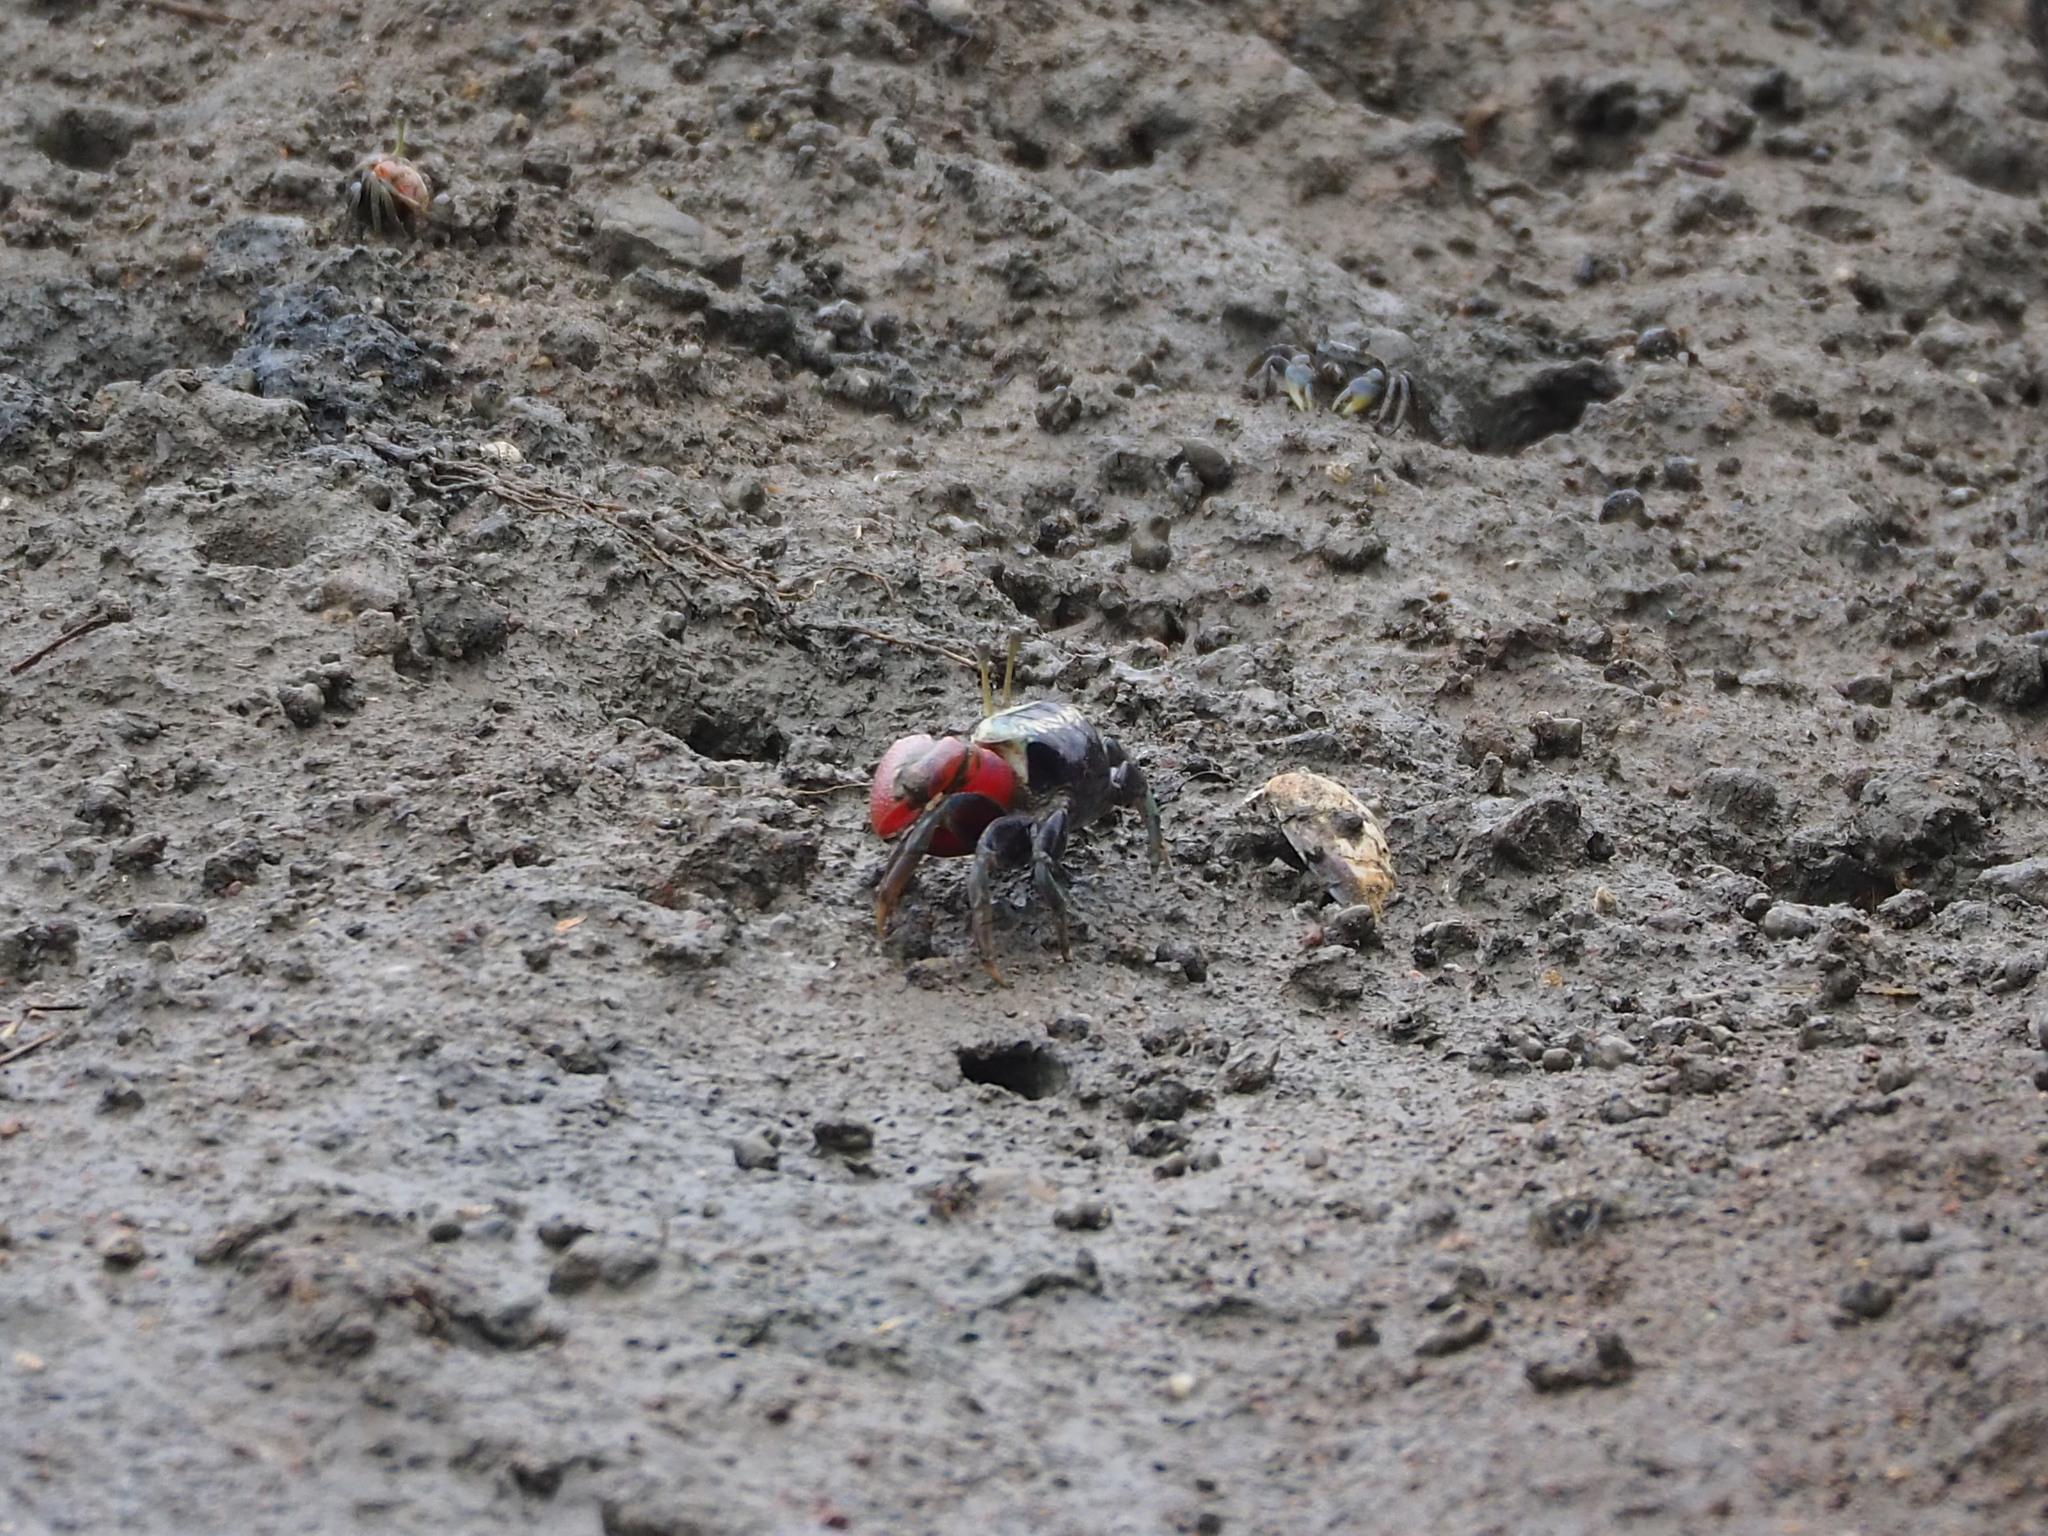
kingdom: Animalia
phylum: Arthropoda
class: Malacostraca
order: Decapoda
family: Ocypodidae
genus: Tubuca
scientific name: Tubuca arcuata
